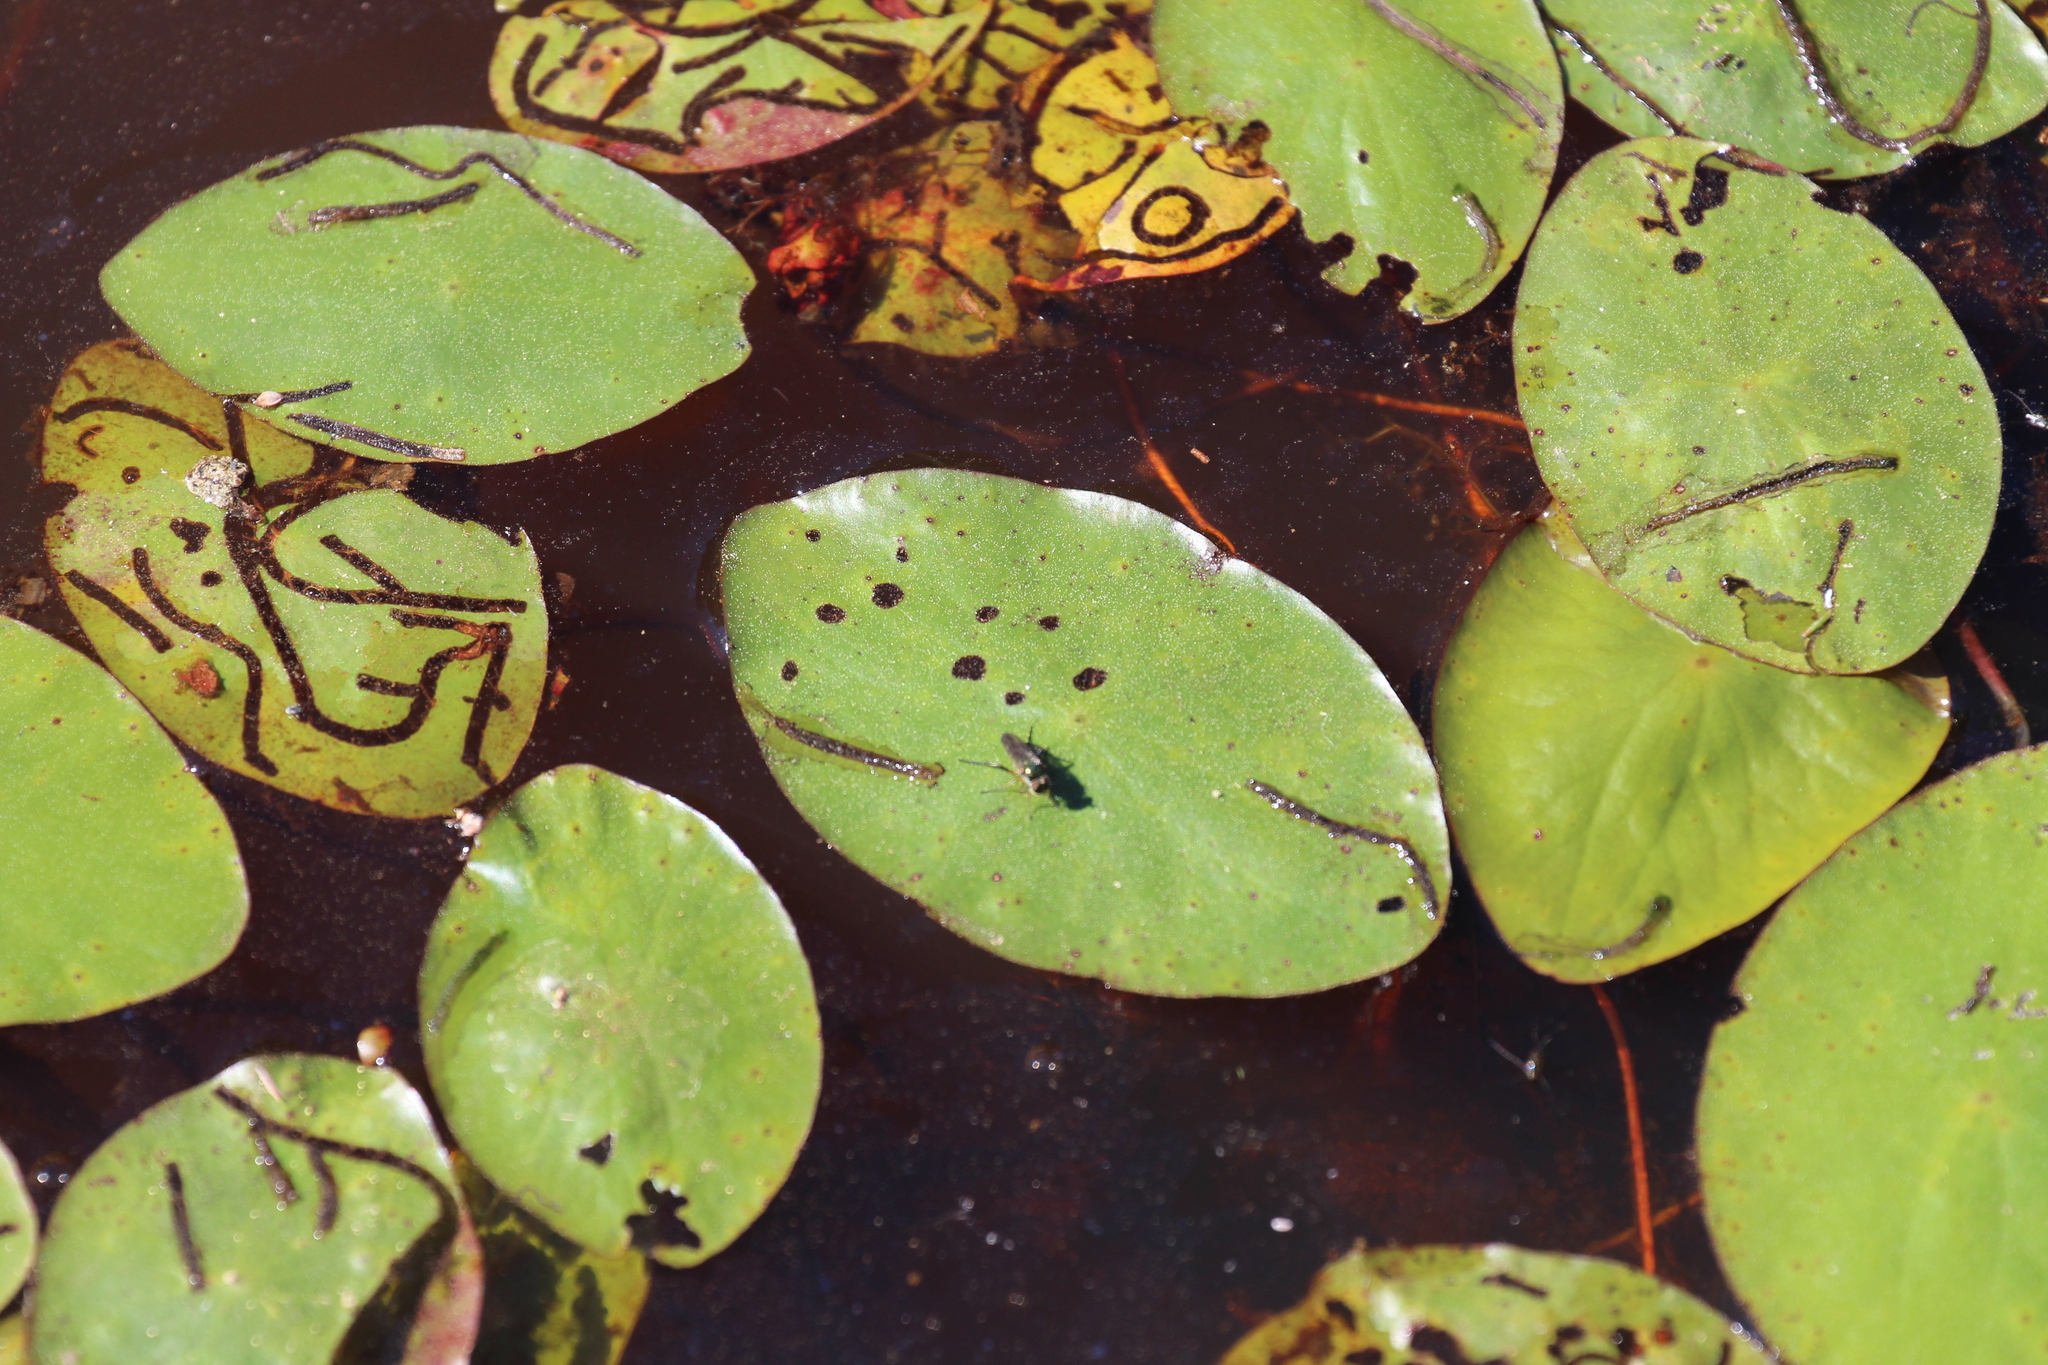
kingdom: Plantae
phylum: Tracheophyta
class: Magnoliopsida
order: Nymphaeales
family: Cabombaceae
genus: Brasenia
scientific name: Brasenia schreberi
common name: Water-shield
